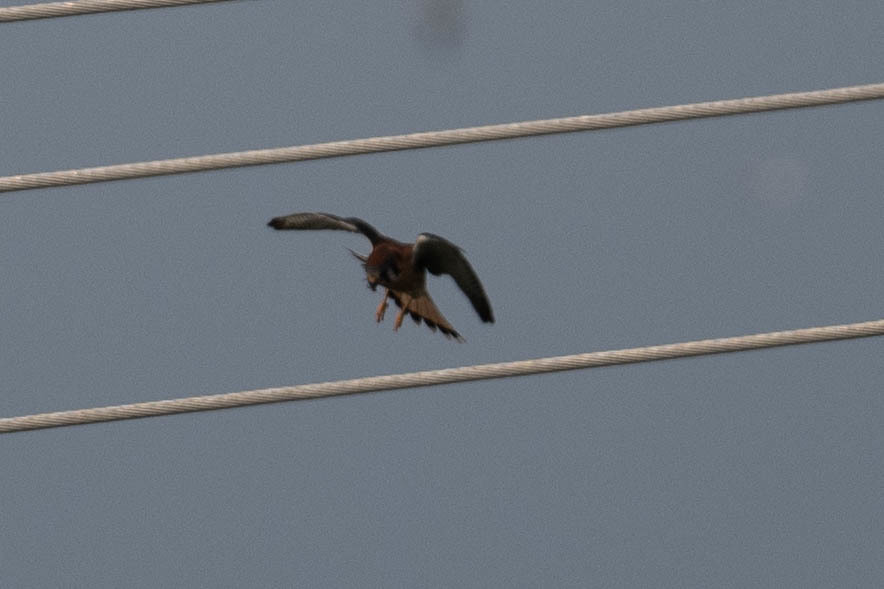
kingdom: Animalia
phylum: Chordata
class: Aves
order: Falconiformes
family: Falconidae
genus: Falco
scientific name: Falco sparverius
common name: American kestrel
